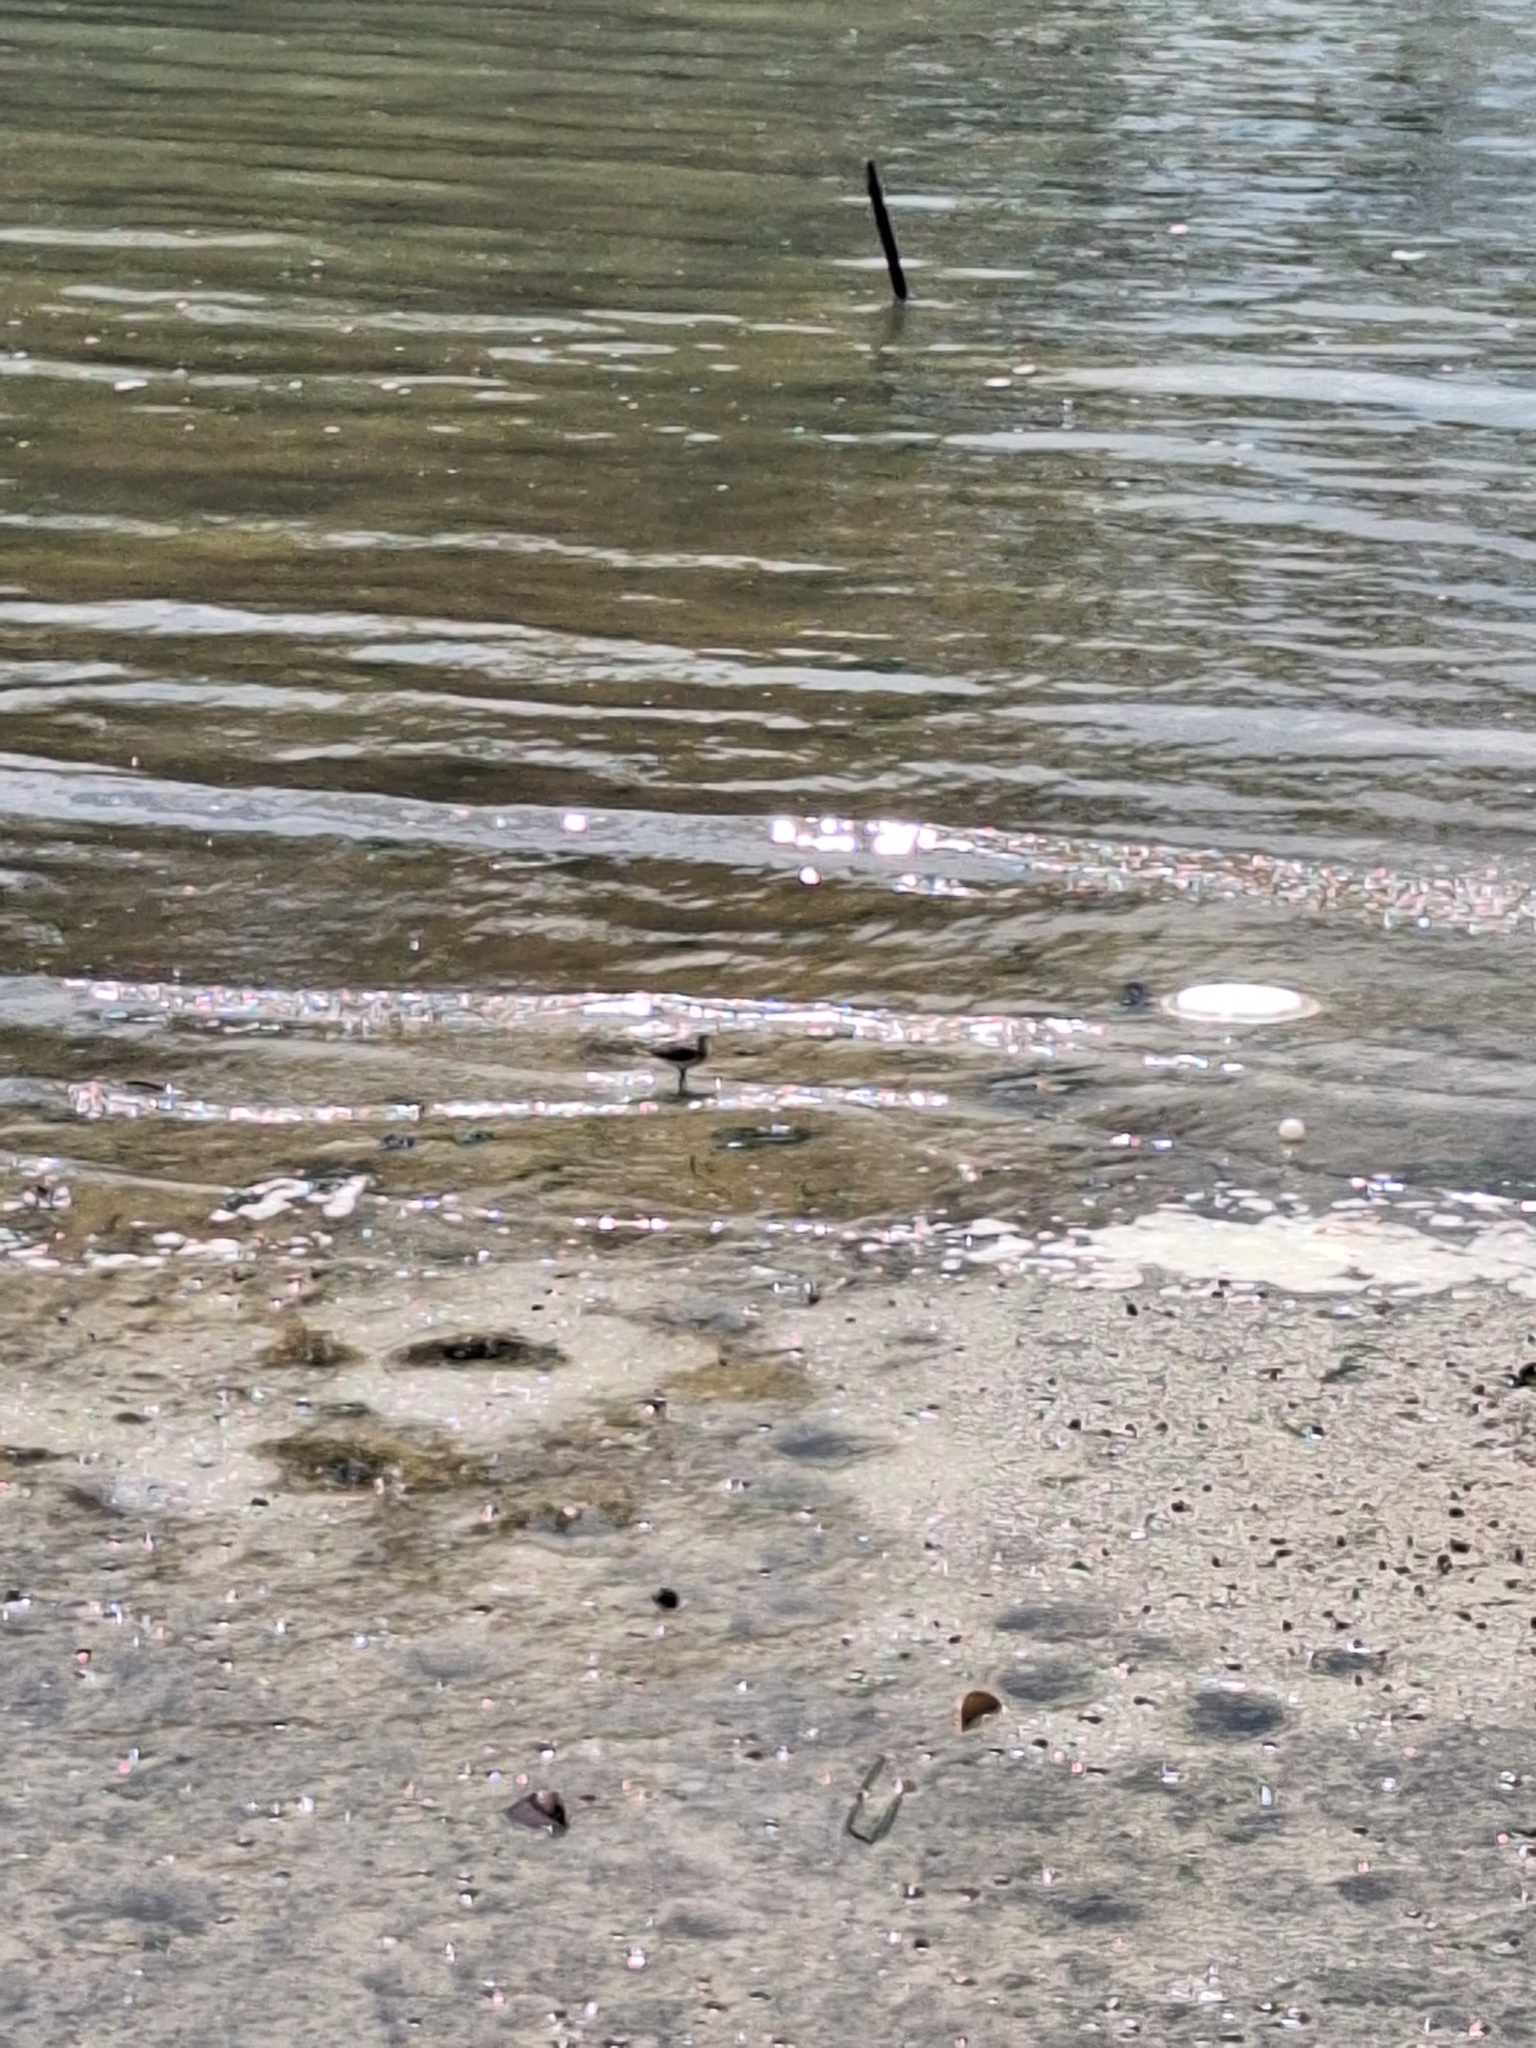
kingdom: Animalia
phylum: Chordata
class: Aves
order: Charadriiformes
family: Scolopacidae
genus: Actitis
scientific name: Actitis hypoleucos
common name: Common sandpiper
